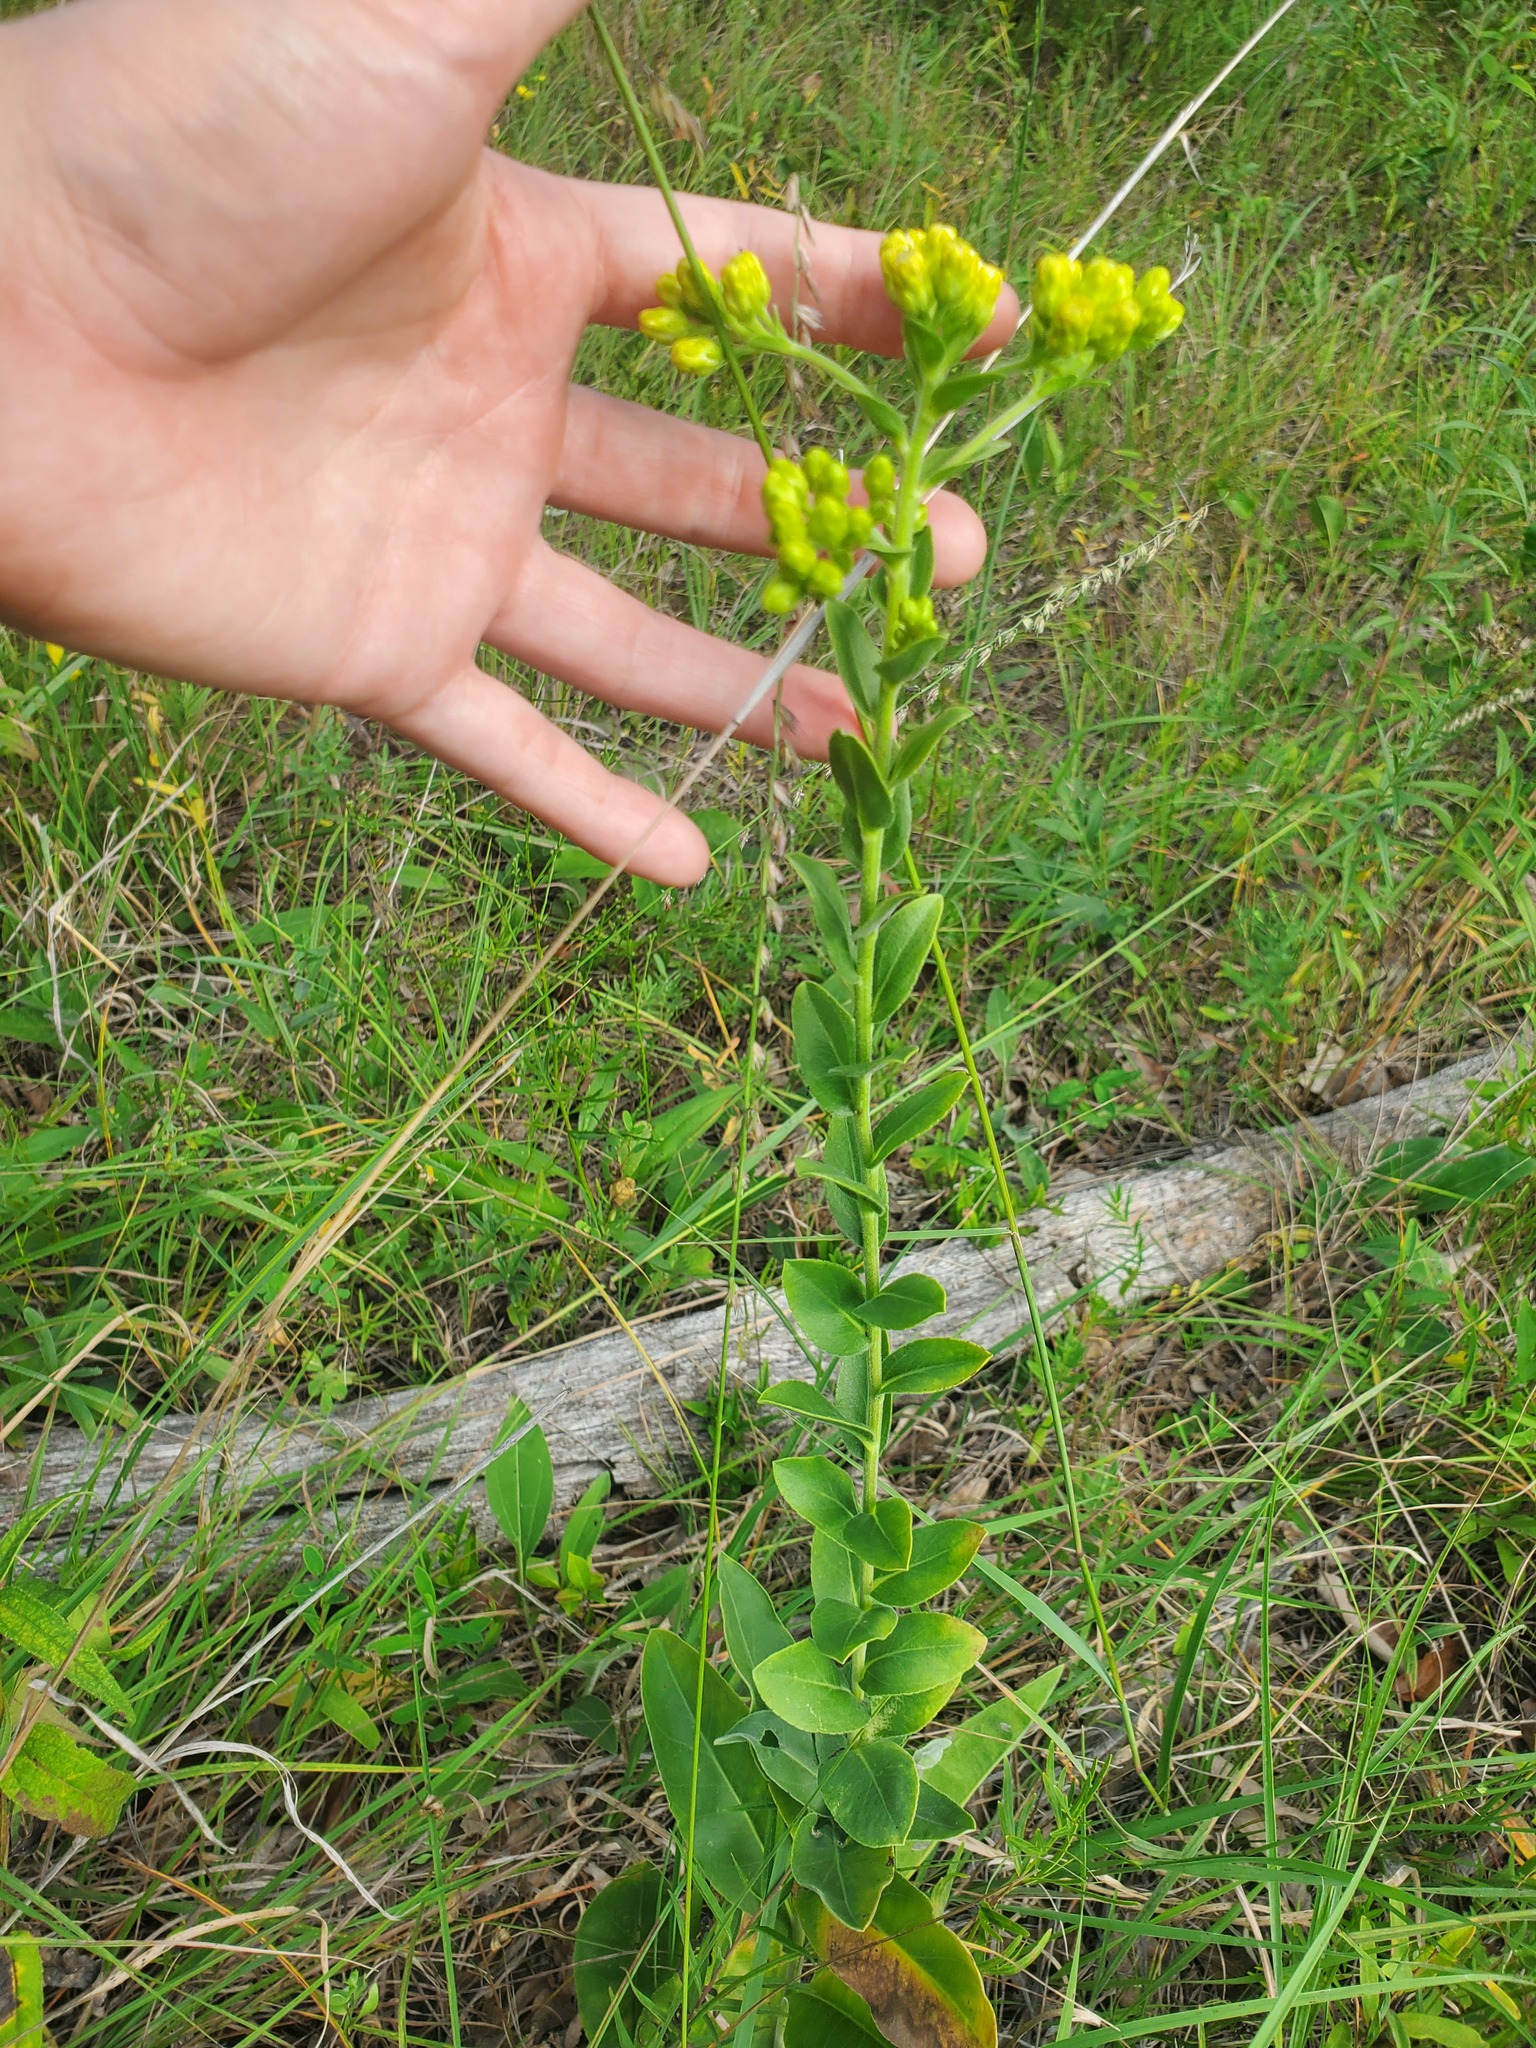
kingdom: Plantae
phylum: Tracheophyta
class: Magnoliopsida
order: Asterales
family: Asteraceae
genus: Solidago
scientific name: Solidago rigida
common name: Rigid goldenrod
